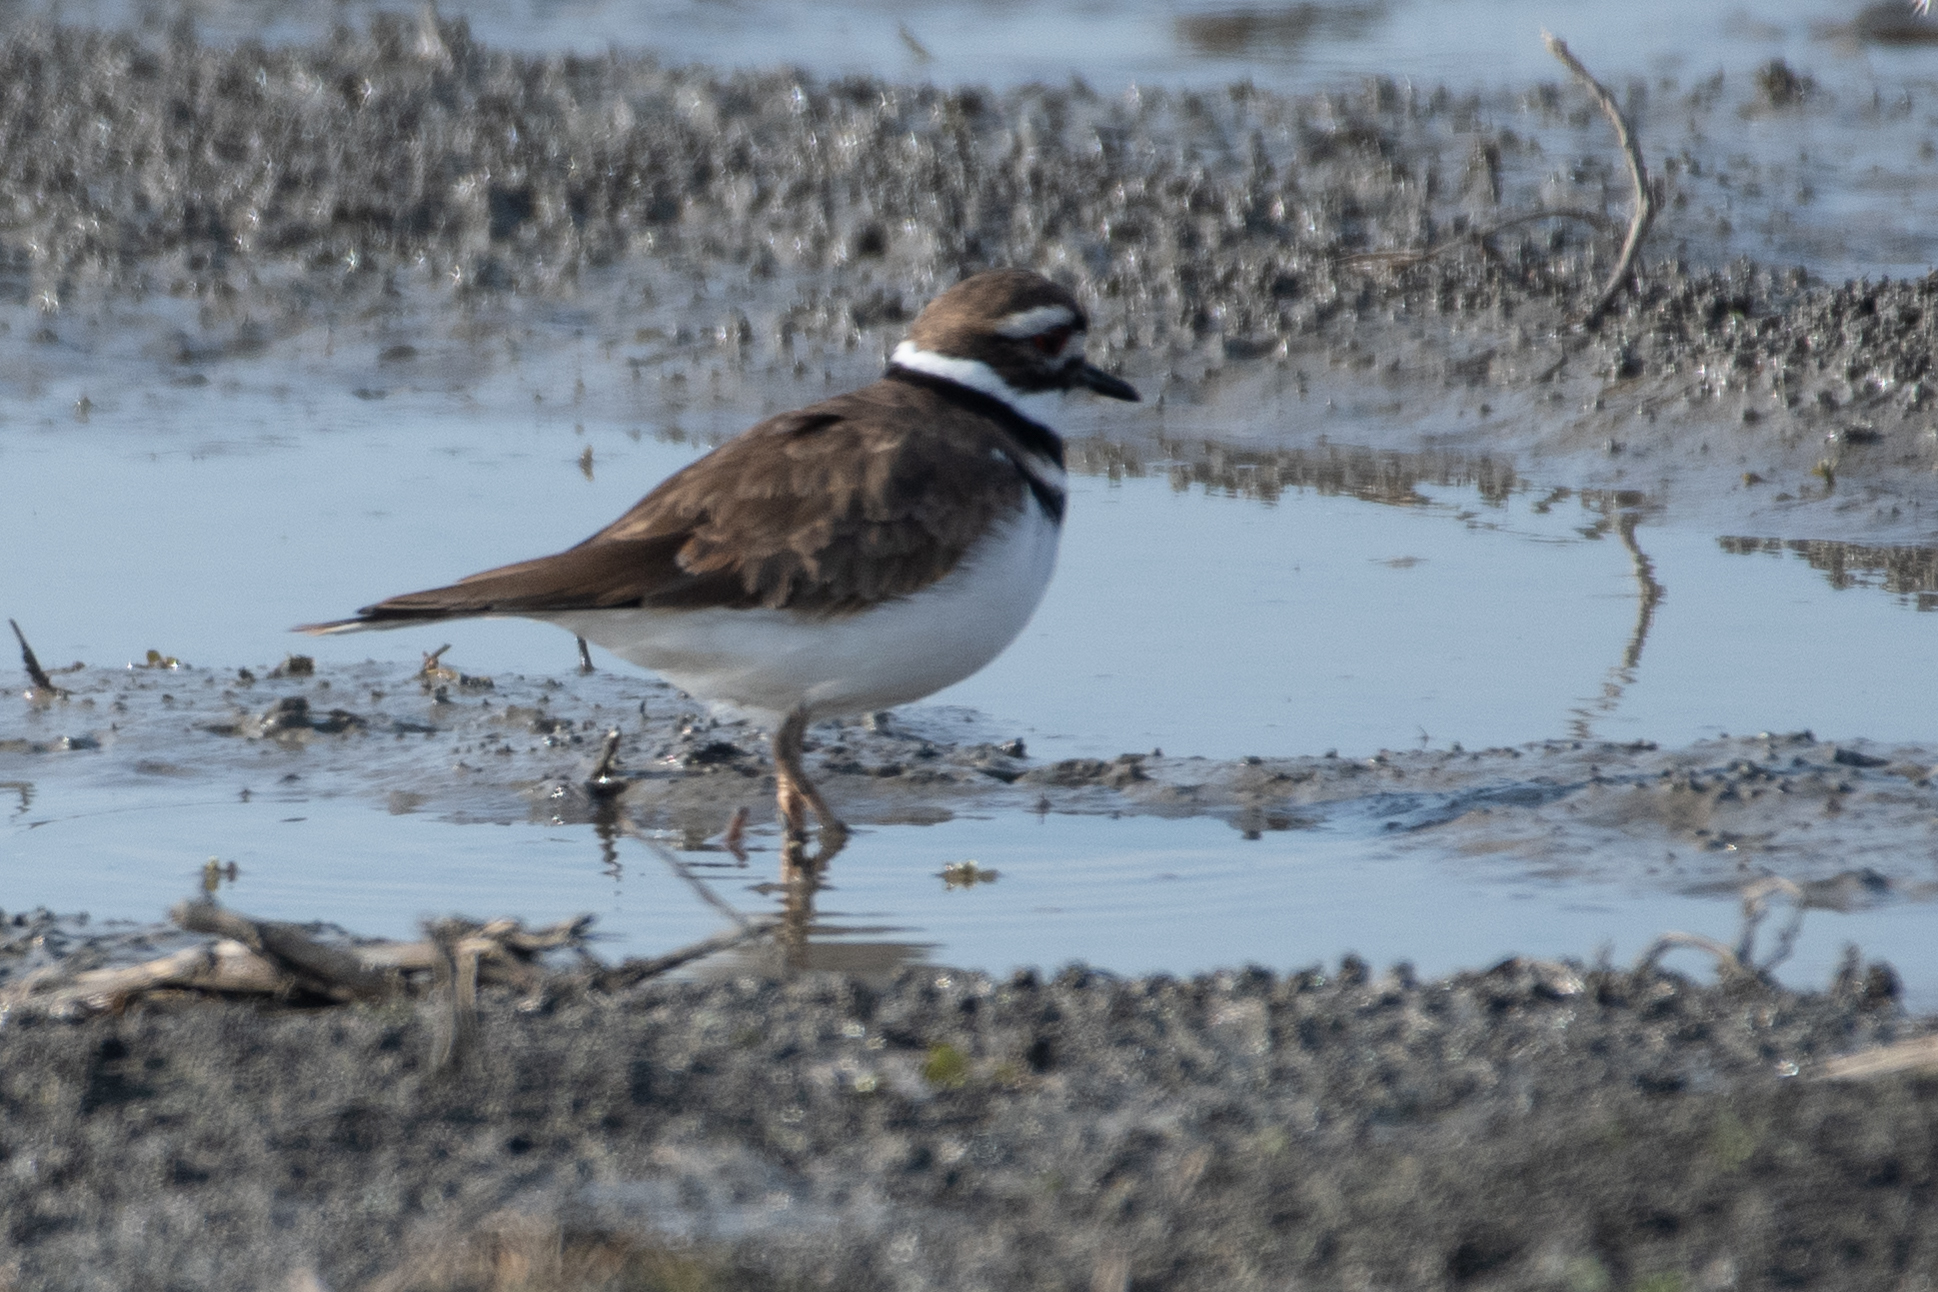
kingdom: Animalia
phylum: Chordata
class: Aves
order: Charadriiformes
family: Charadriidae
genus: Charadrius
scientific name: Charadrius vociferus
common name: Killdeer
